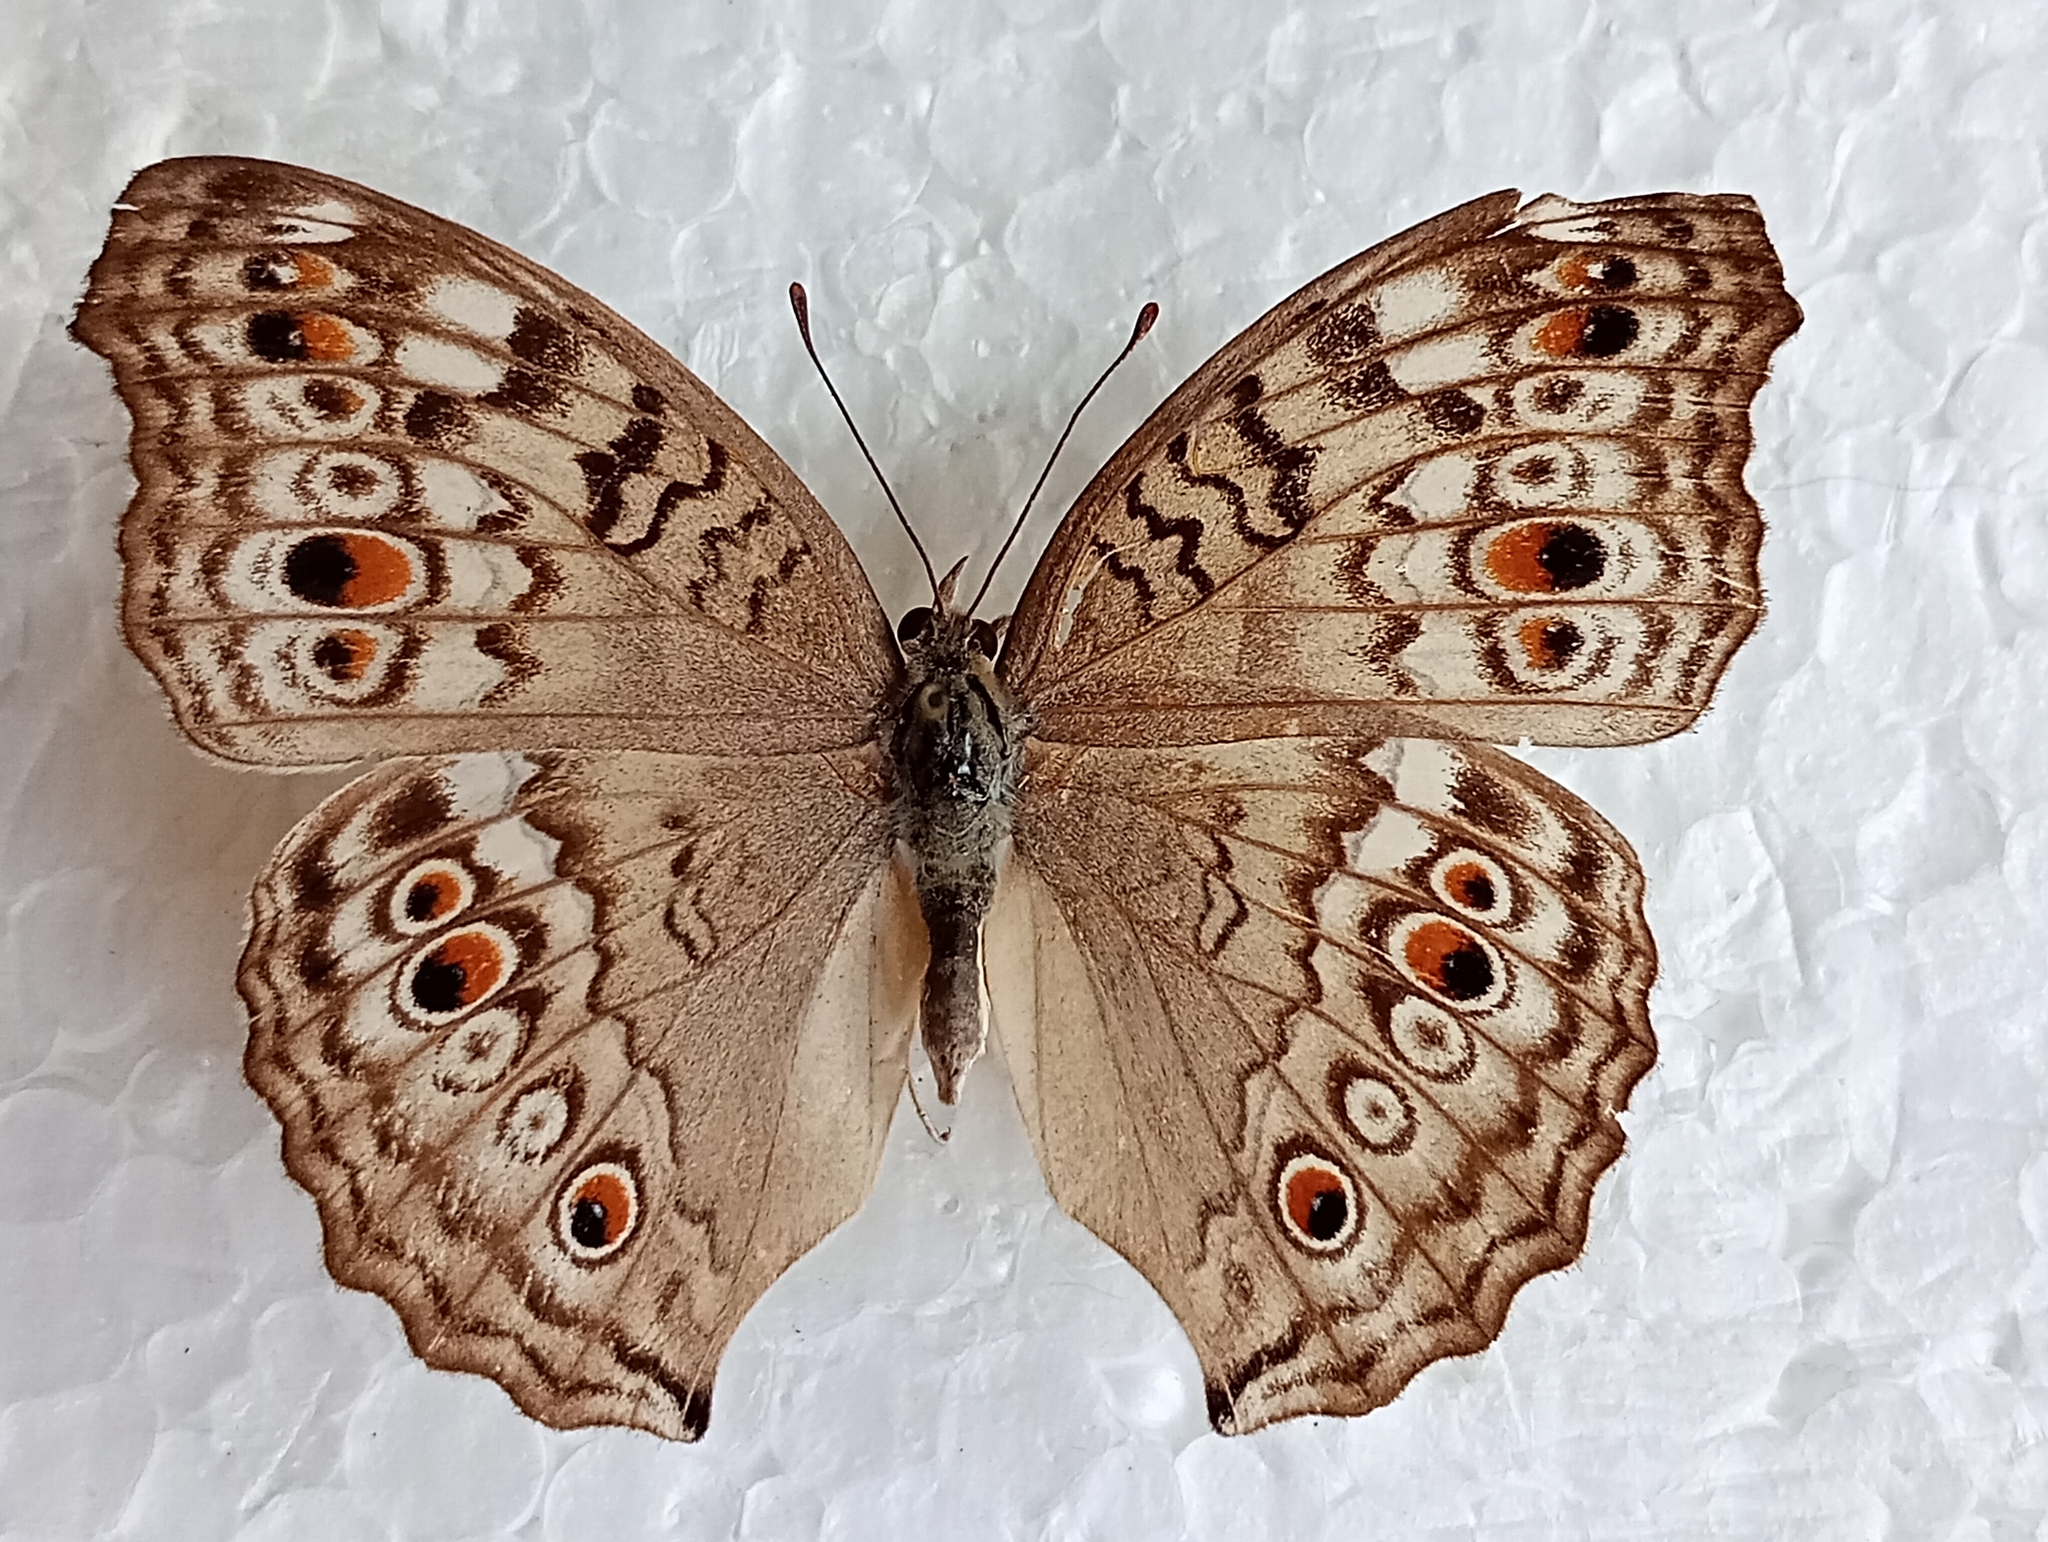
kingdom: Animalia
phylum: Arthropoda
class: Insecta
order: Lepidoptera
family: Nymphalidae
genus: Junonia
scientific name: Junonia atlites
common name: Grey pansy
